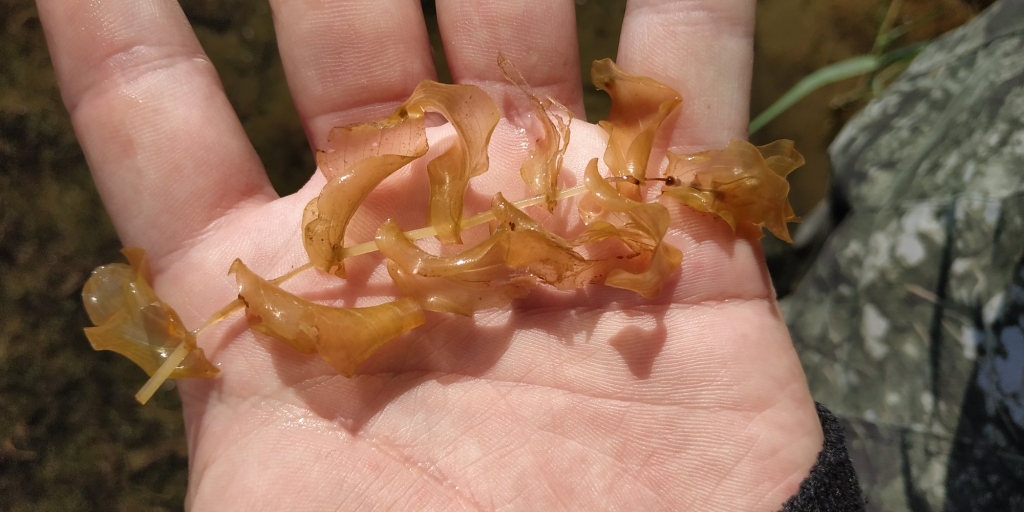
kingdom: Plantae
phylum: Tracheophyta
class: Liliopsida
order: Alismatales
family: Potamogetonaceae
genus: Potamogeton
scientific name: Potamogeton perfoliatus
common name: Perfoliate pondweed
